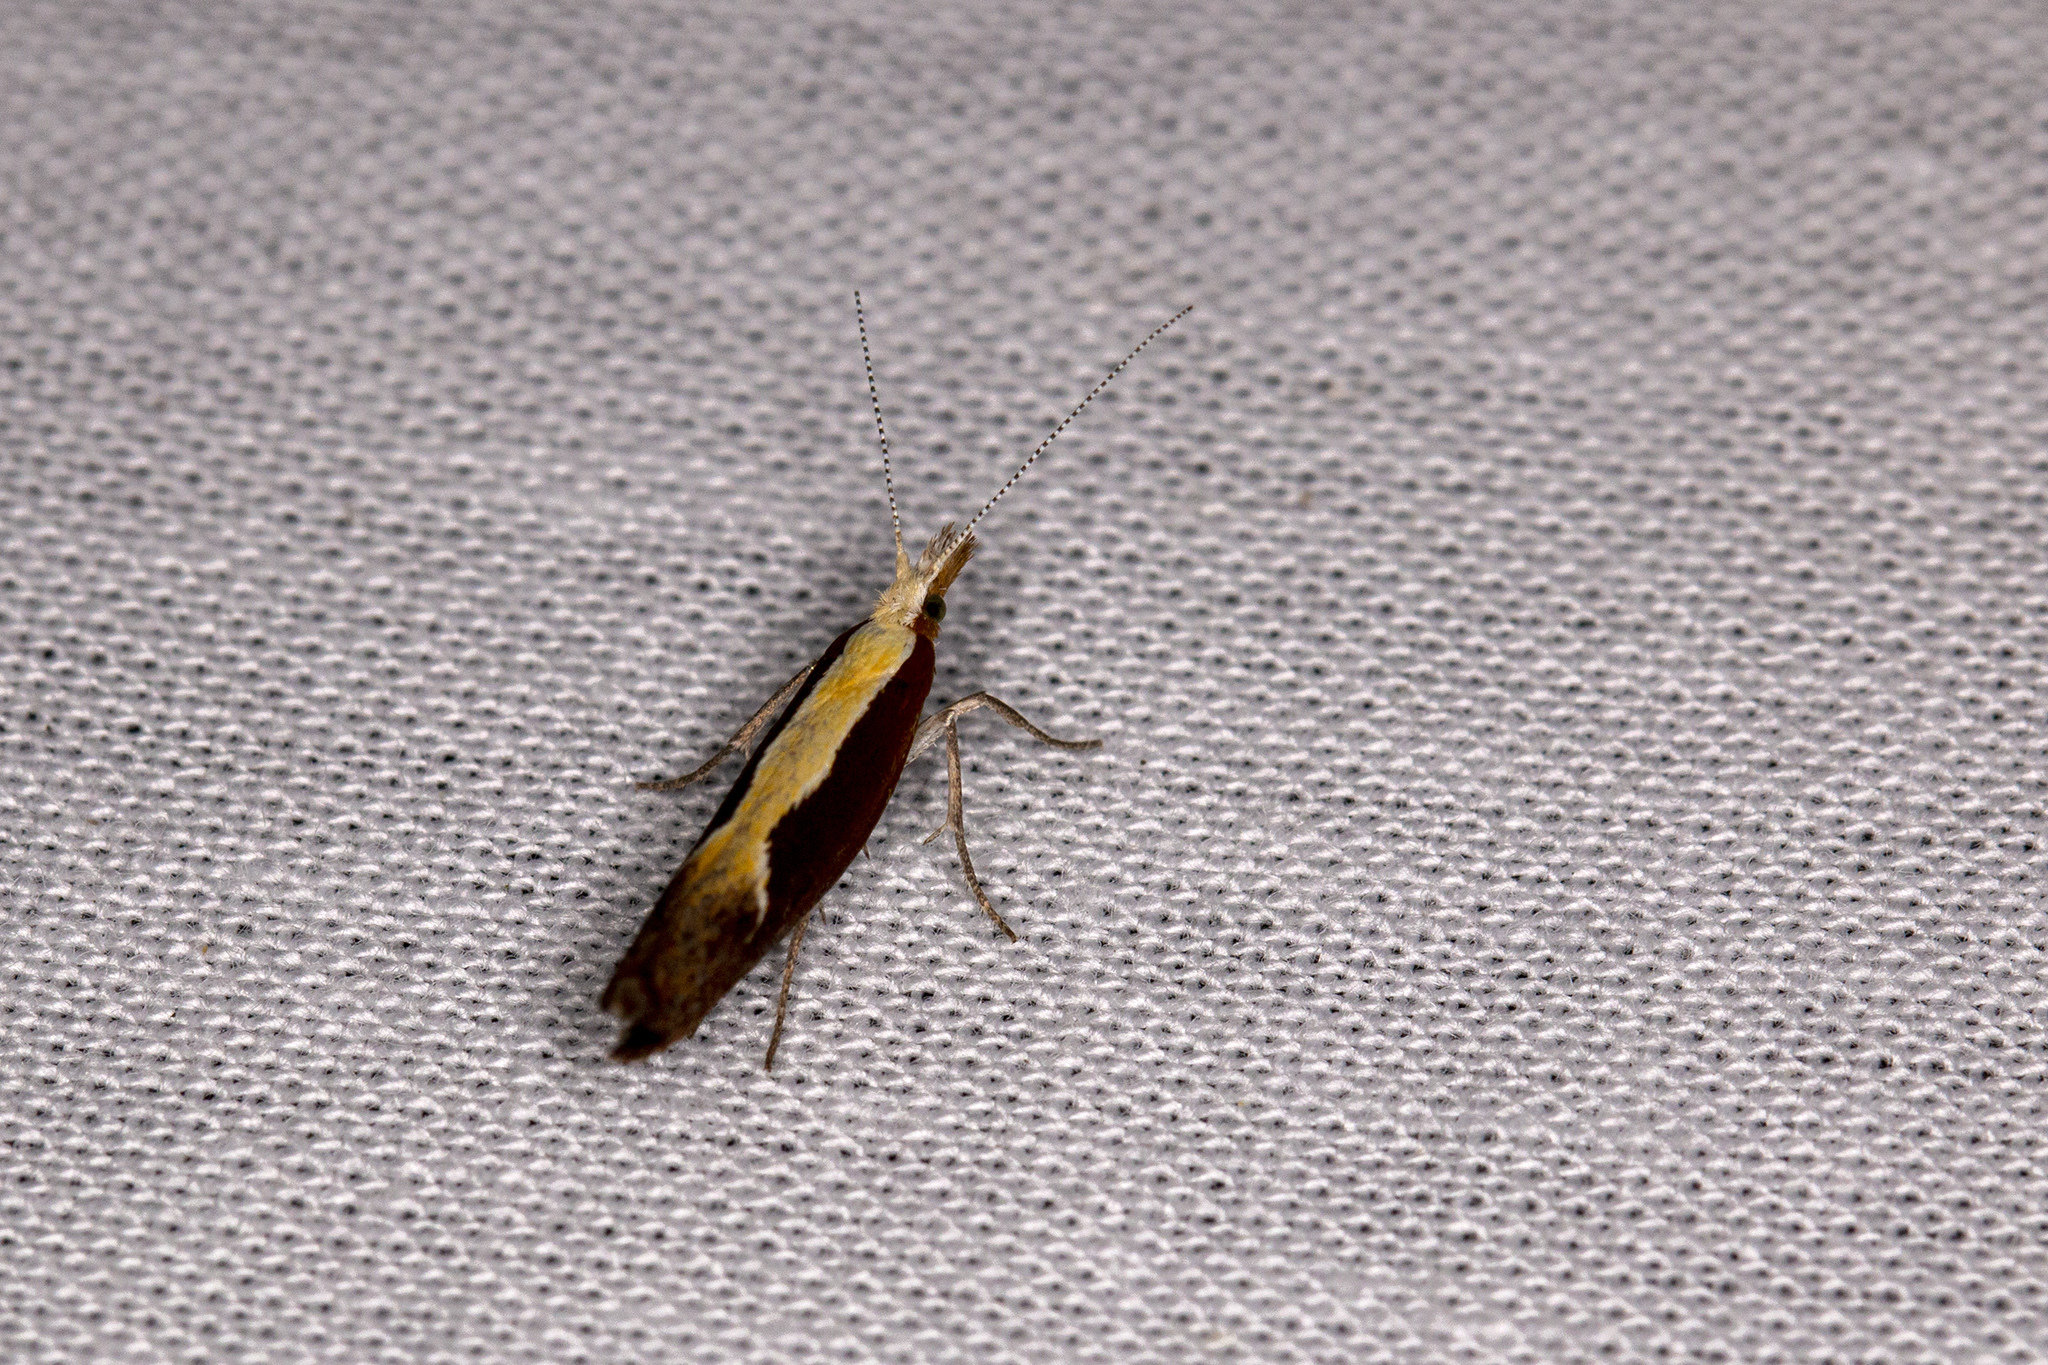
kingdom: Animalia
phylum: Arthropoda
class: Insecta
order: Lepidoptera
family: Ypsolophidae
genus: Ypsolopha
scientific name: Ypsolopha dentella
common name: Honeysuckle moth
